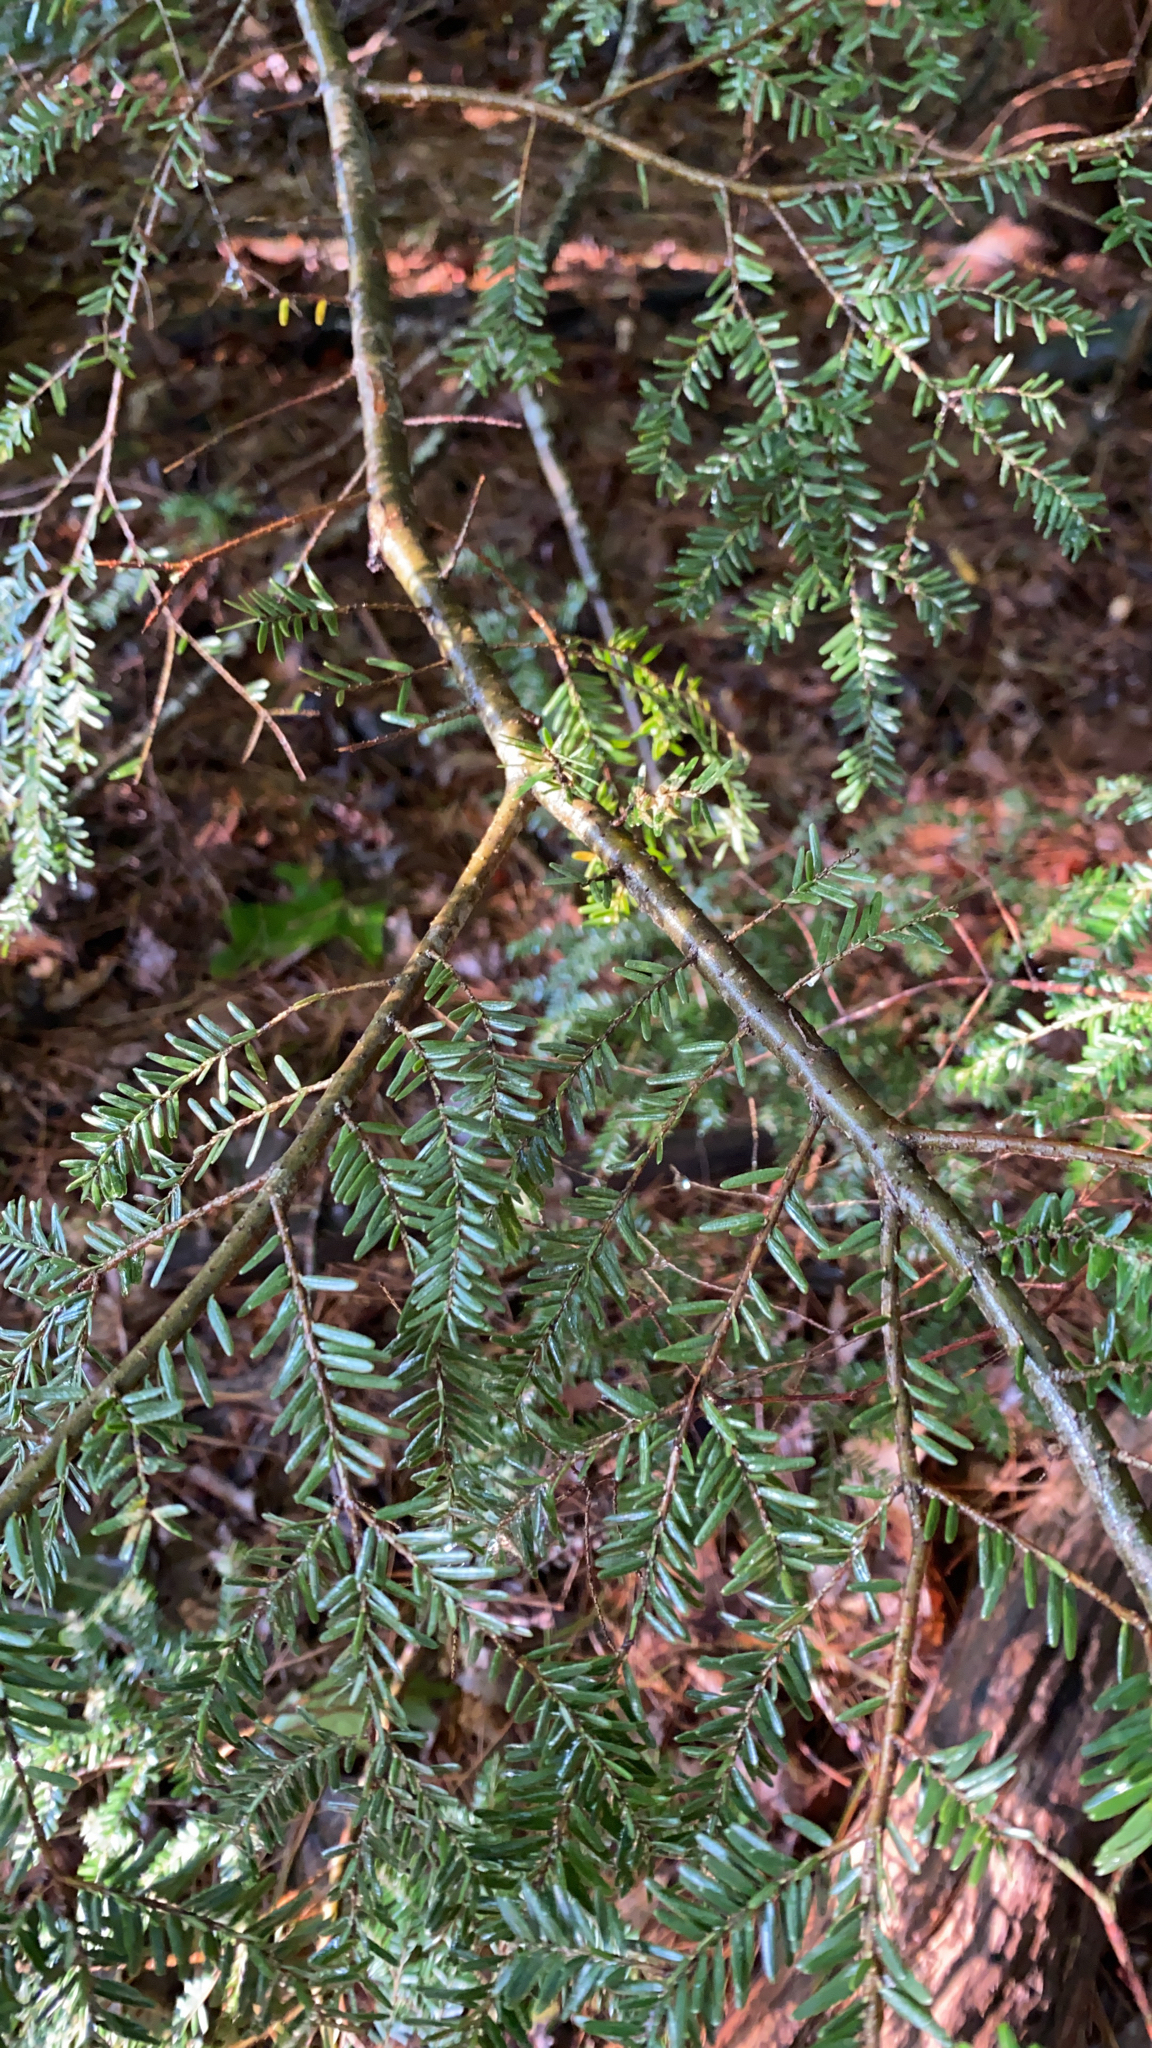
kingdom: Plantae
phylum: Tracheophyta
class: Pinopsida
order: Pinales
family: Pinaceae
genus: Tsuga
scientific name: Tsuga canadensis
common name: Eastern hemlock
